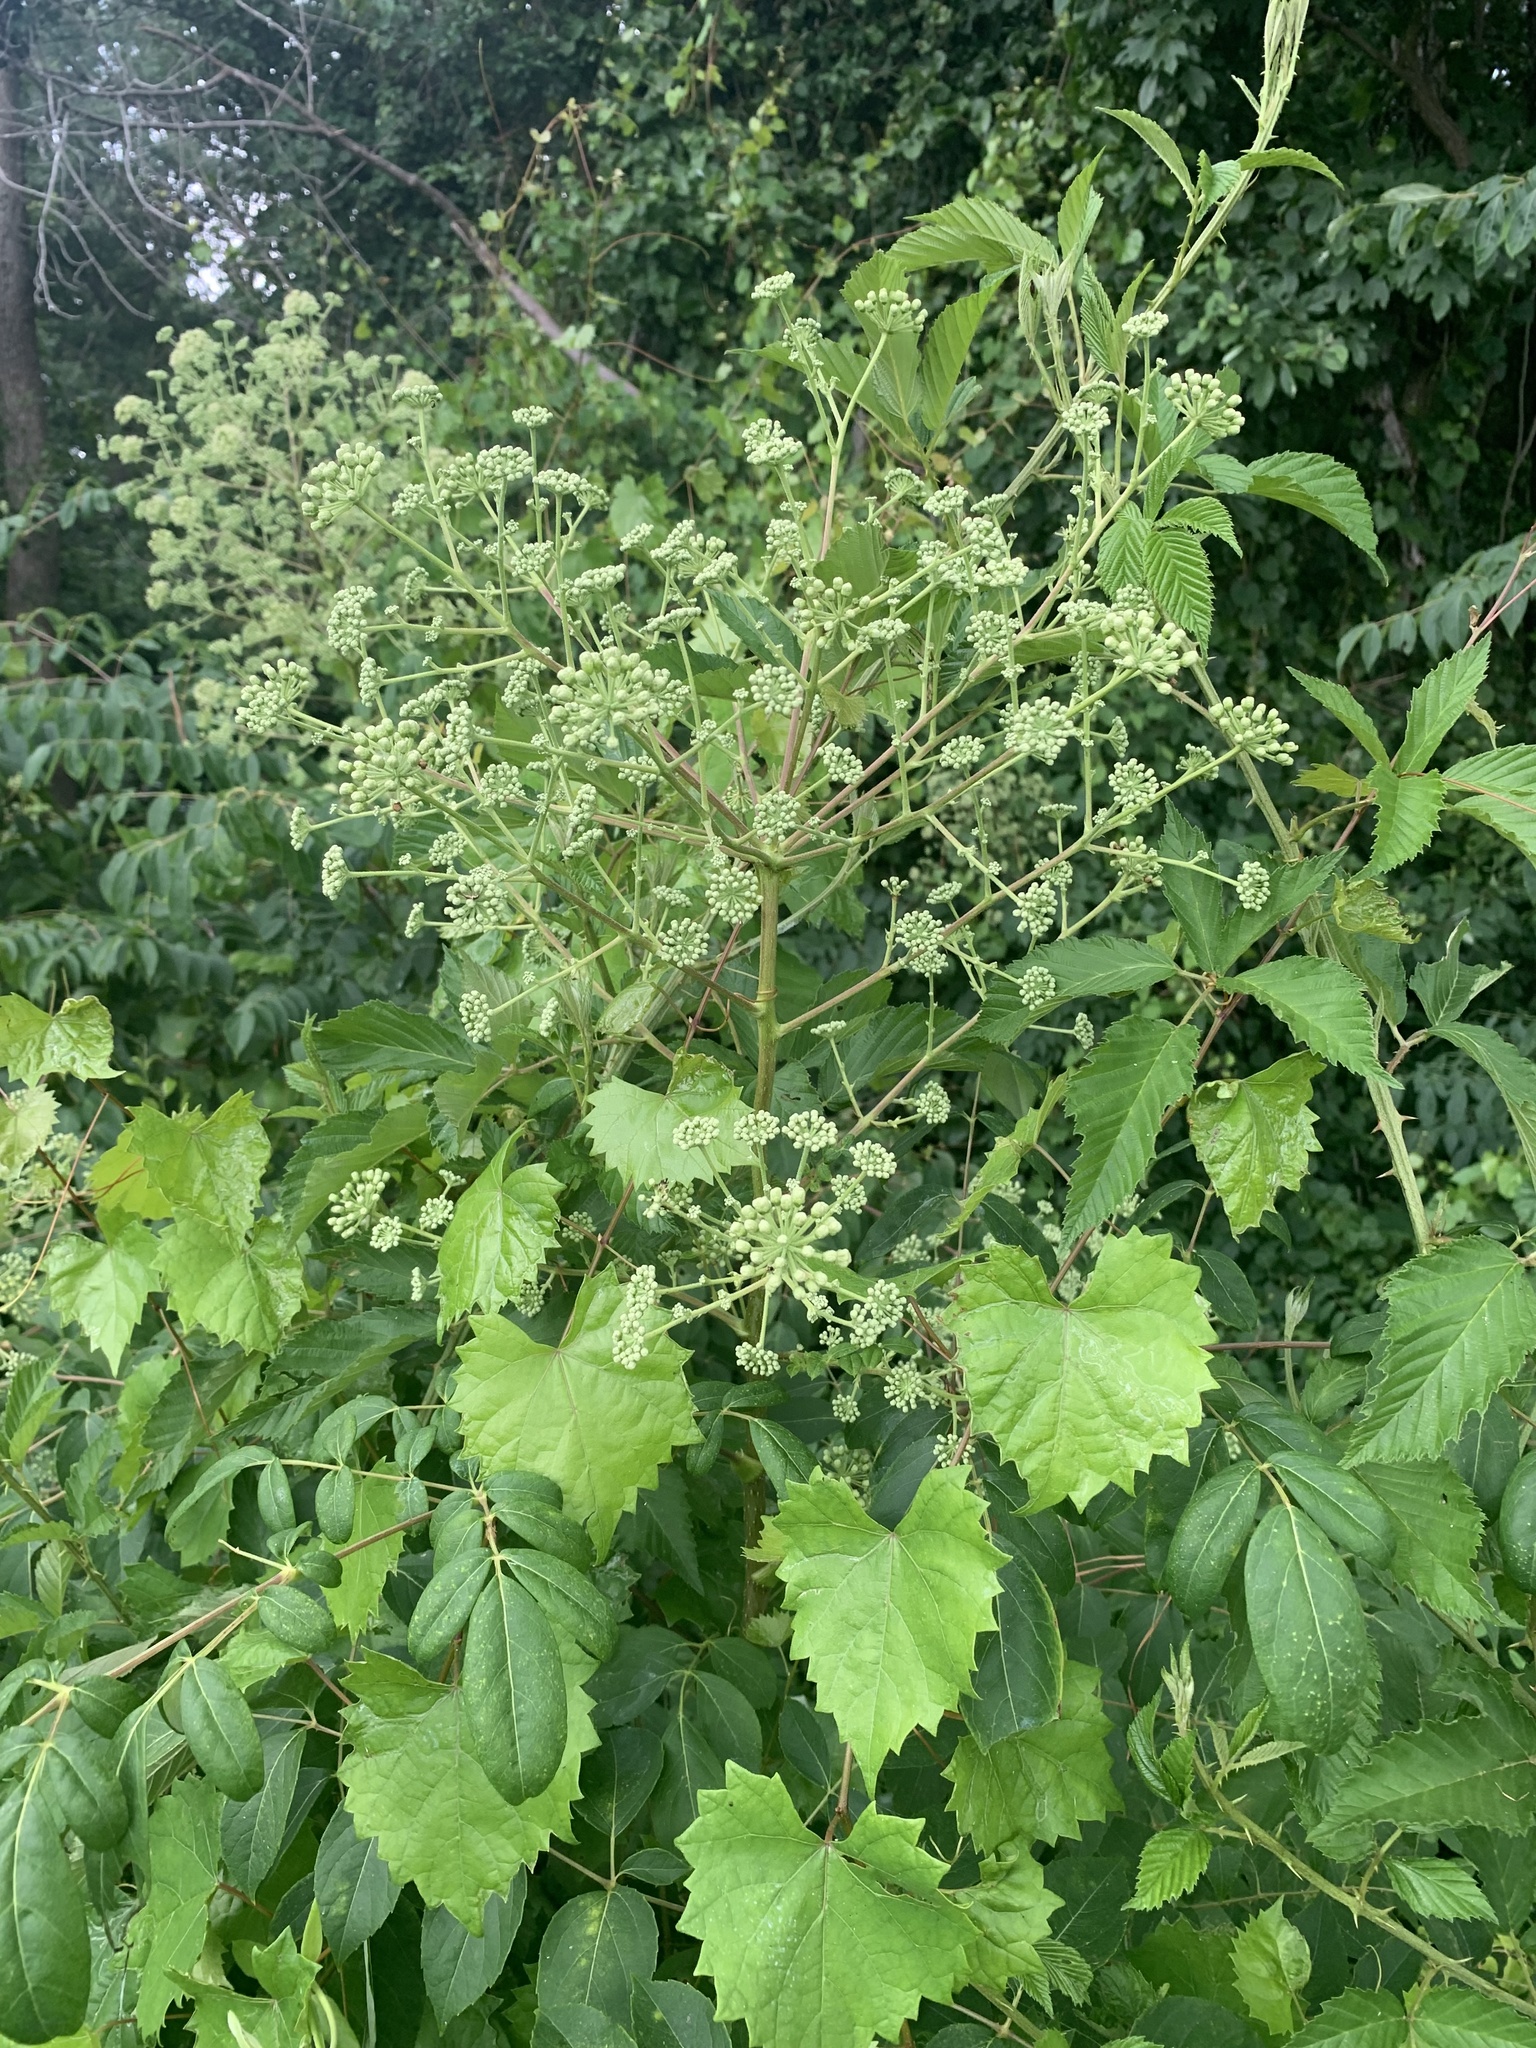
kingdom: Plantae
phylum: Tracheophyta
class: Magnoliopsida
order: Apiales
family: Araliaceae
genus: Aralia
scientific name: Aralia spinosa
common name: Hercules'-club
